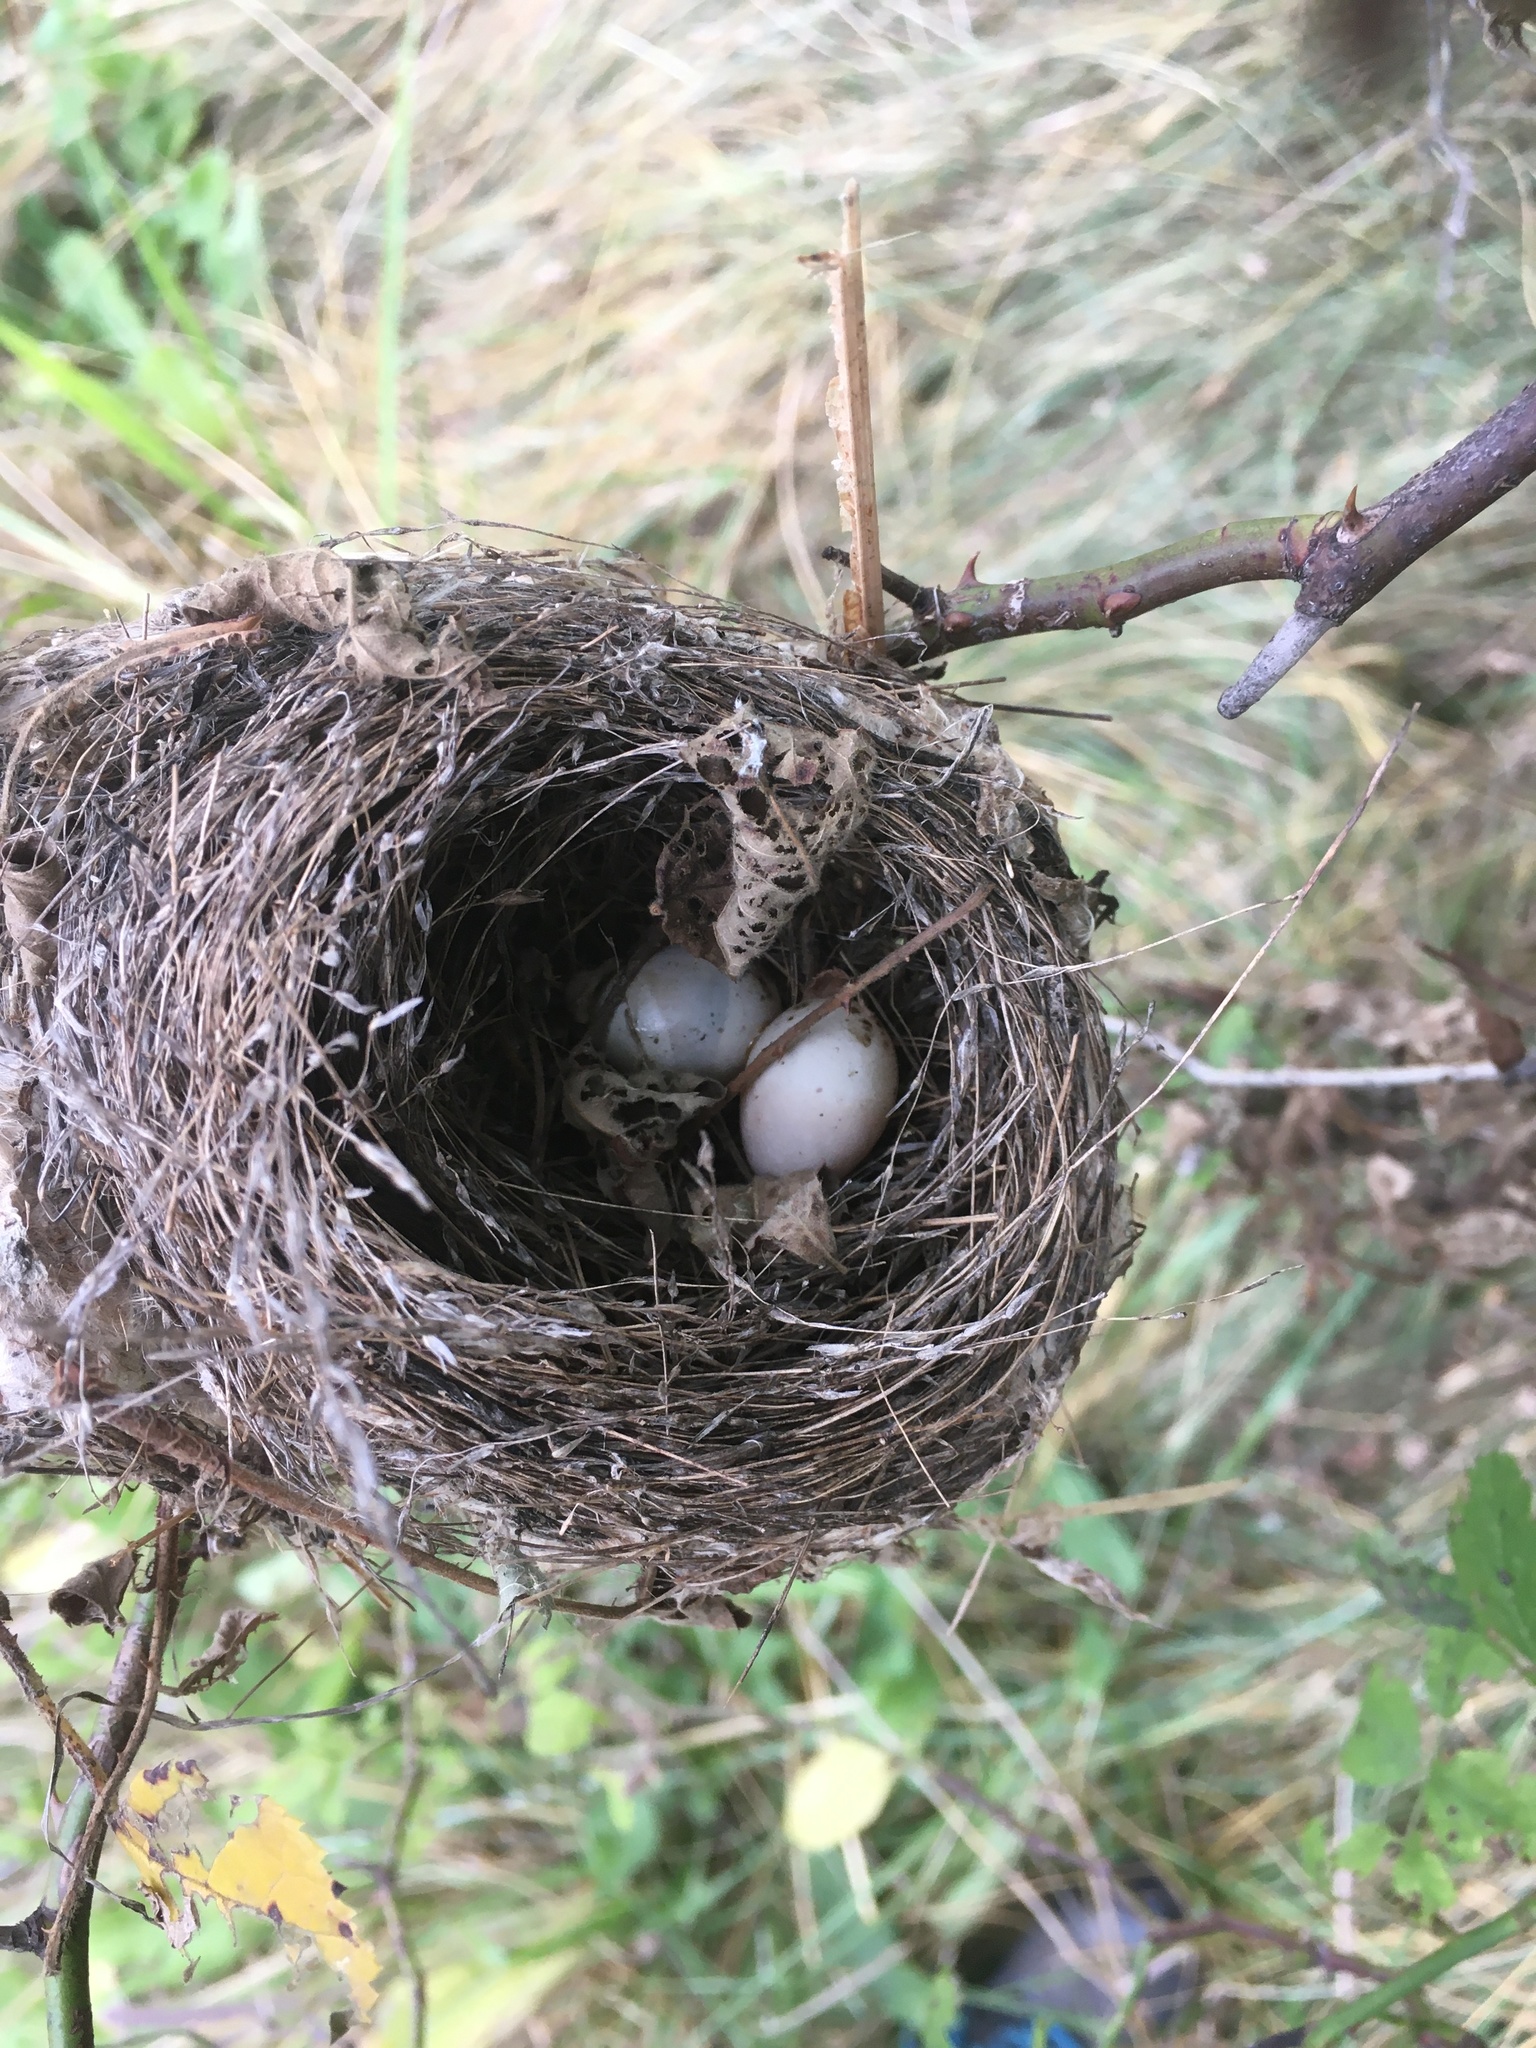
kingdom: Animalia
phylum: Chordata
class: Aves
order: Passeriformes
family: Tyrannidae
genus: Empidonax
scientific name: Empidonax traillii
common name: Willow flycatcher
